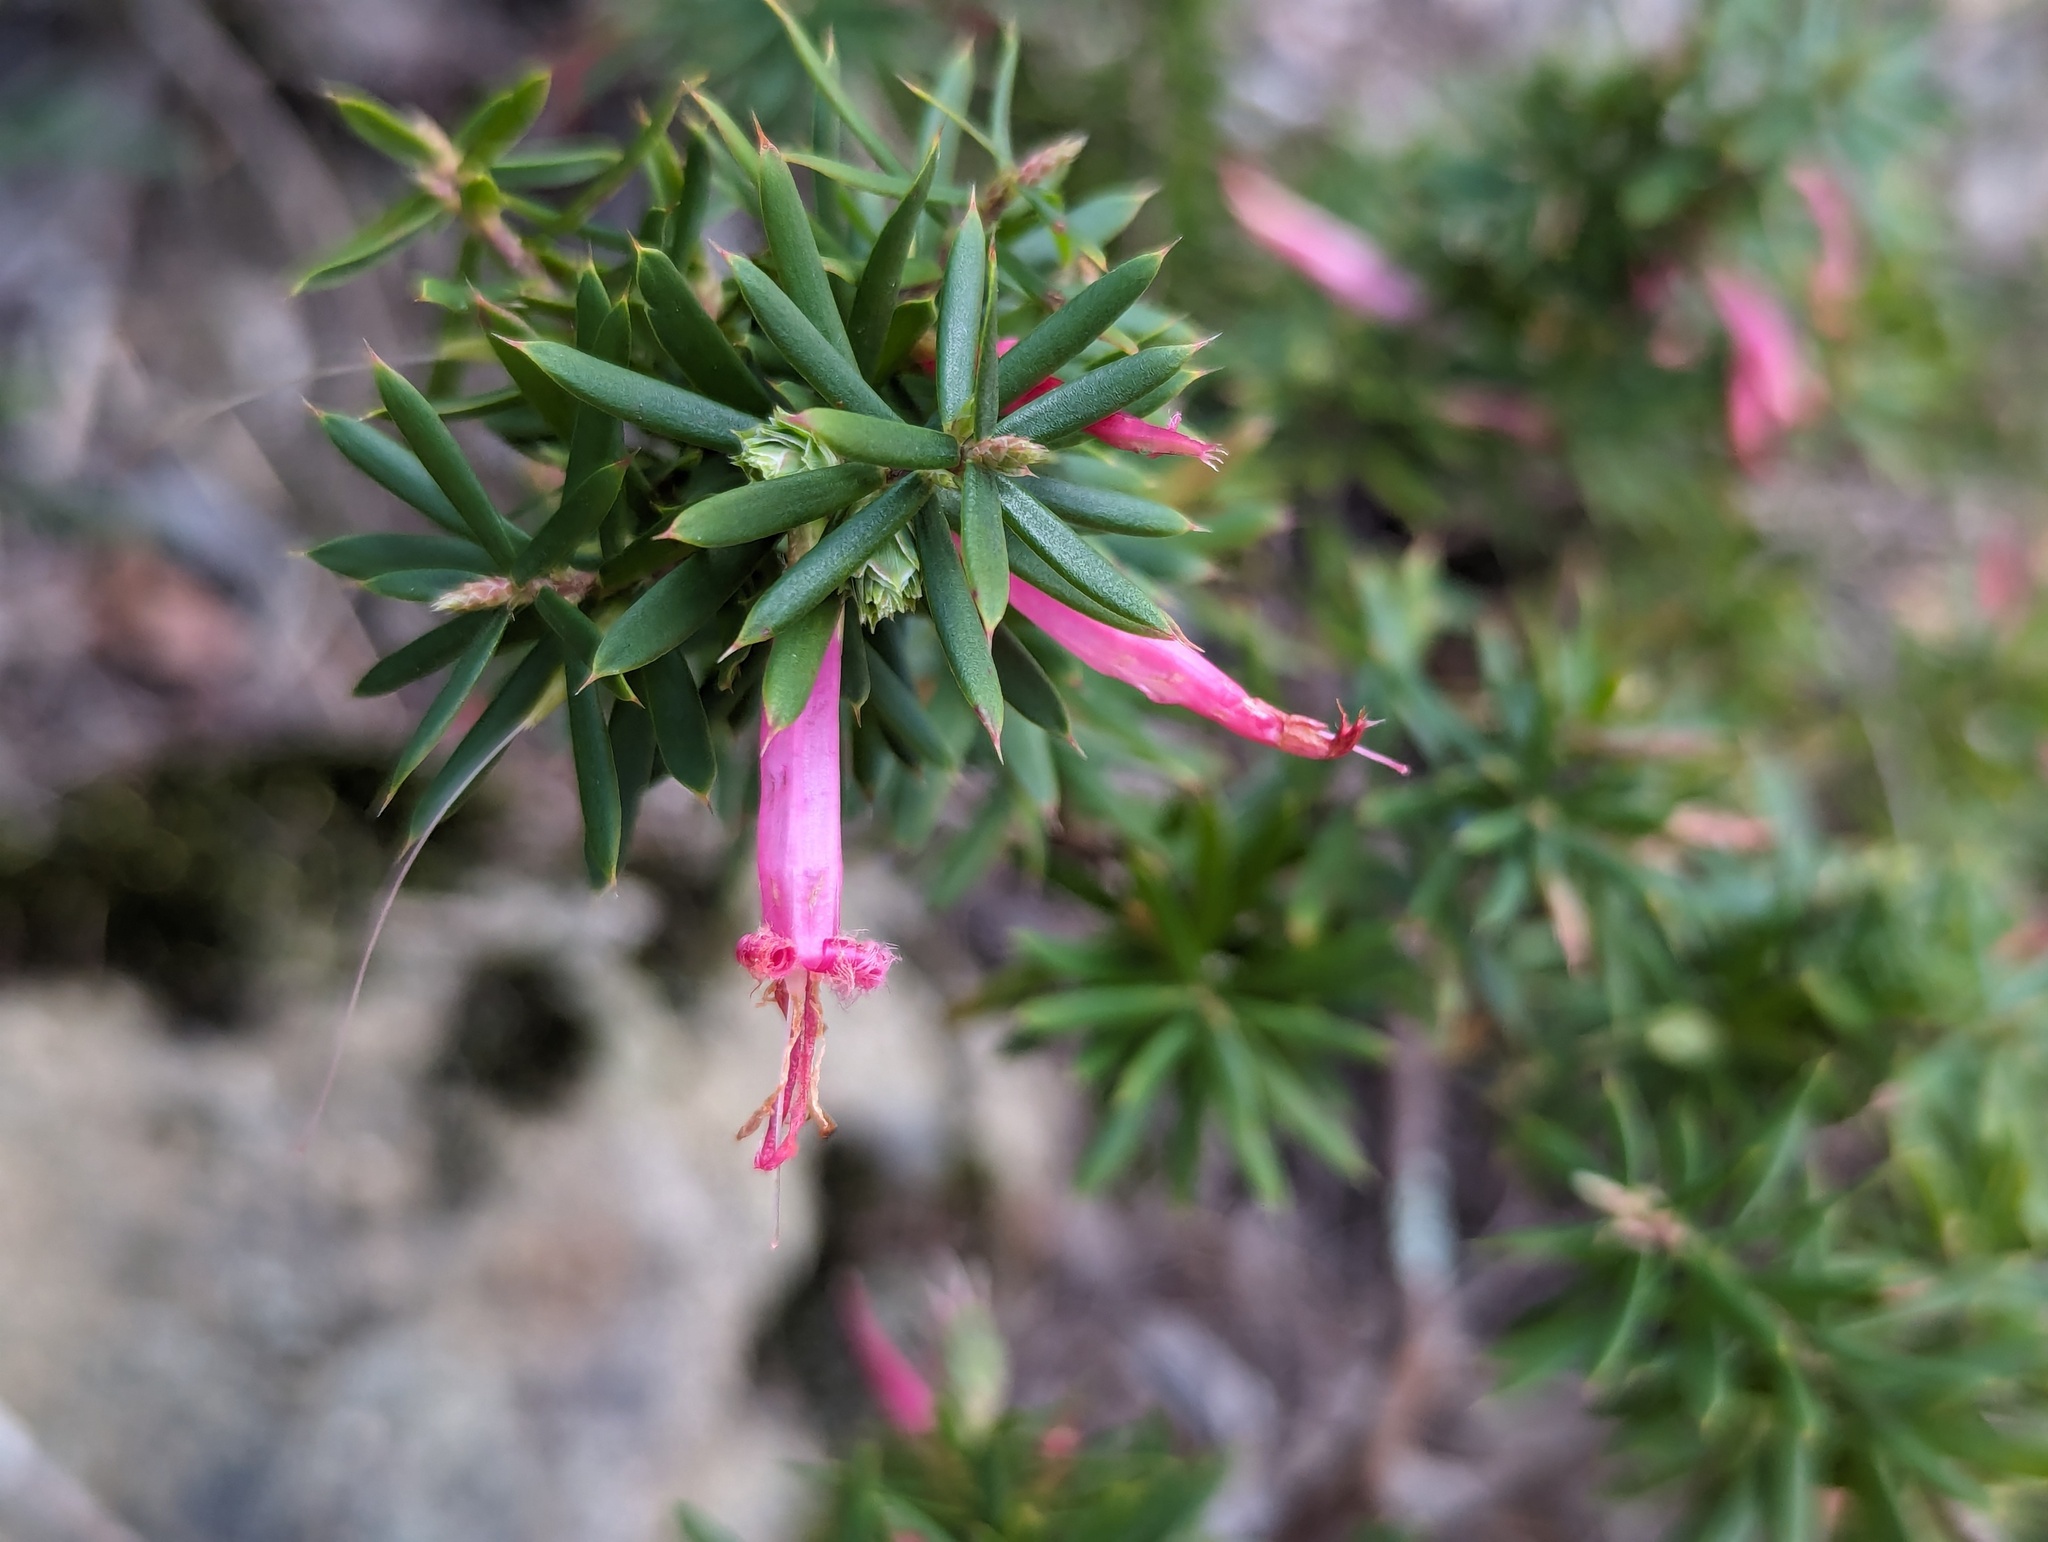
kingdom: Plantae
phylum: Tracheophyta
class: Magnoliopsida
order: Ericales
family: Ericaceae
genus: Styphelia
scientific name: Styphelia tubiflora
